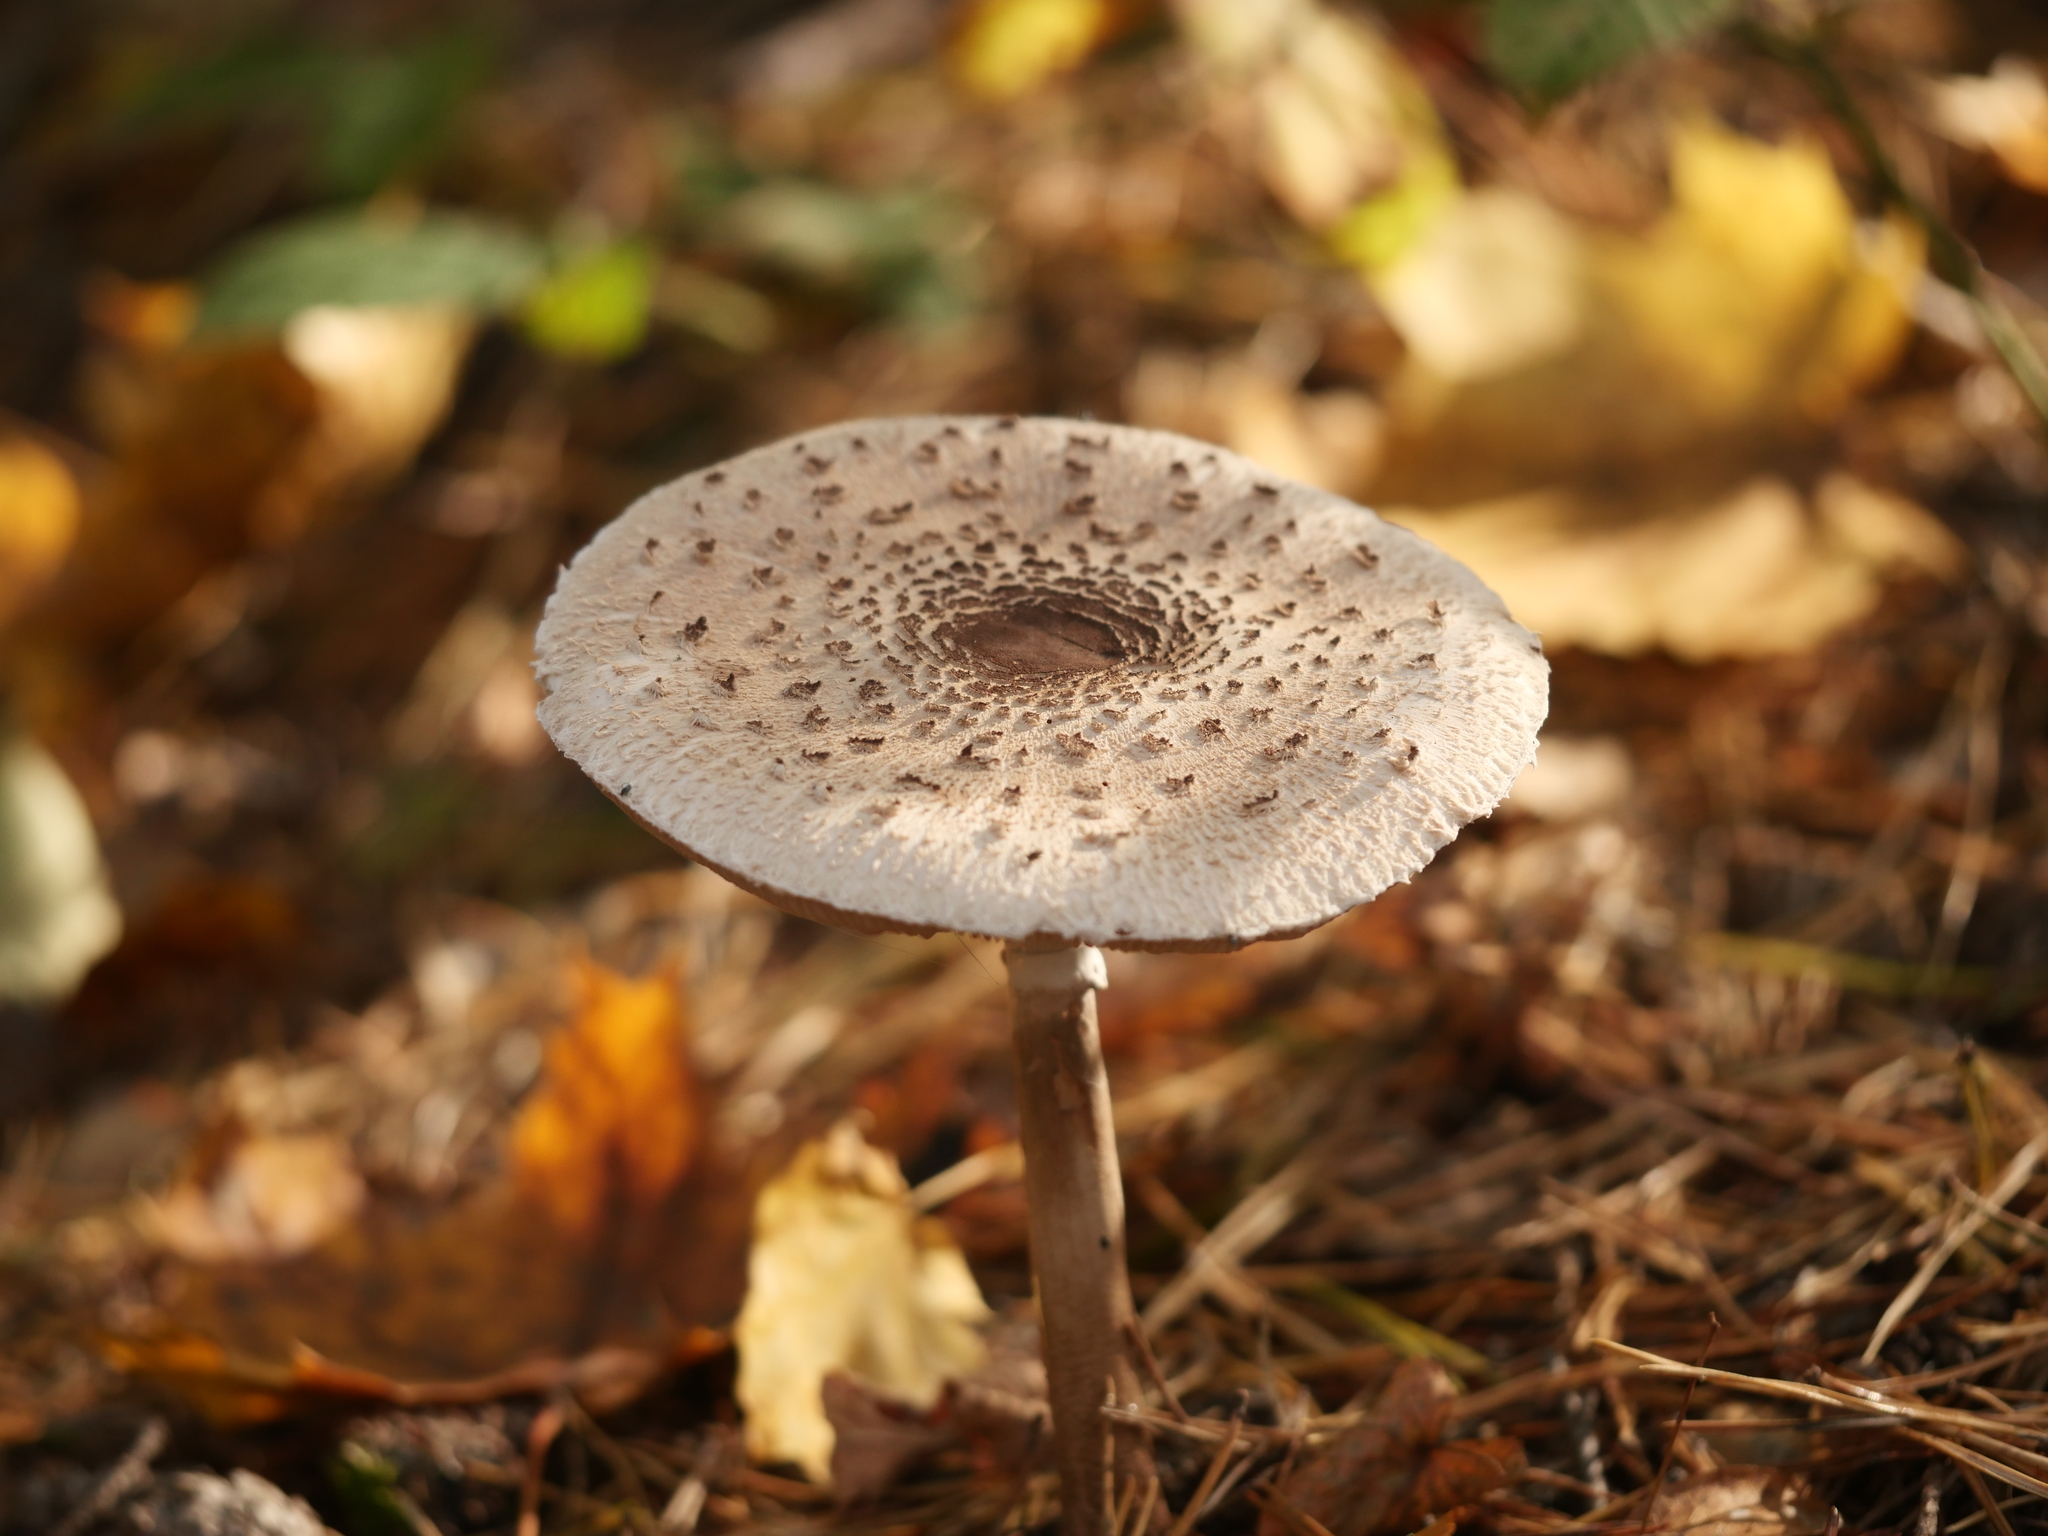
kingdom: Fungi
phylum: Basidiomycota
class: Agaricomycetes
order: Agaricales
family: Agaricaceae
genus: Macrolepiota
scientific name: Macrolepiota procera
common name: Parasol
